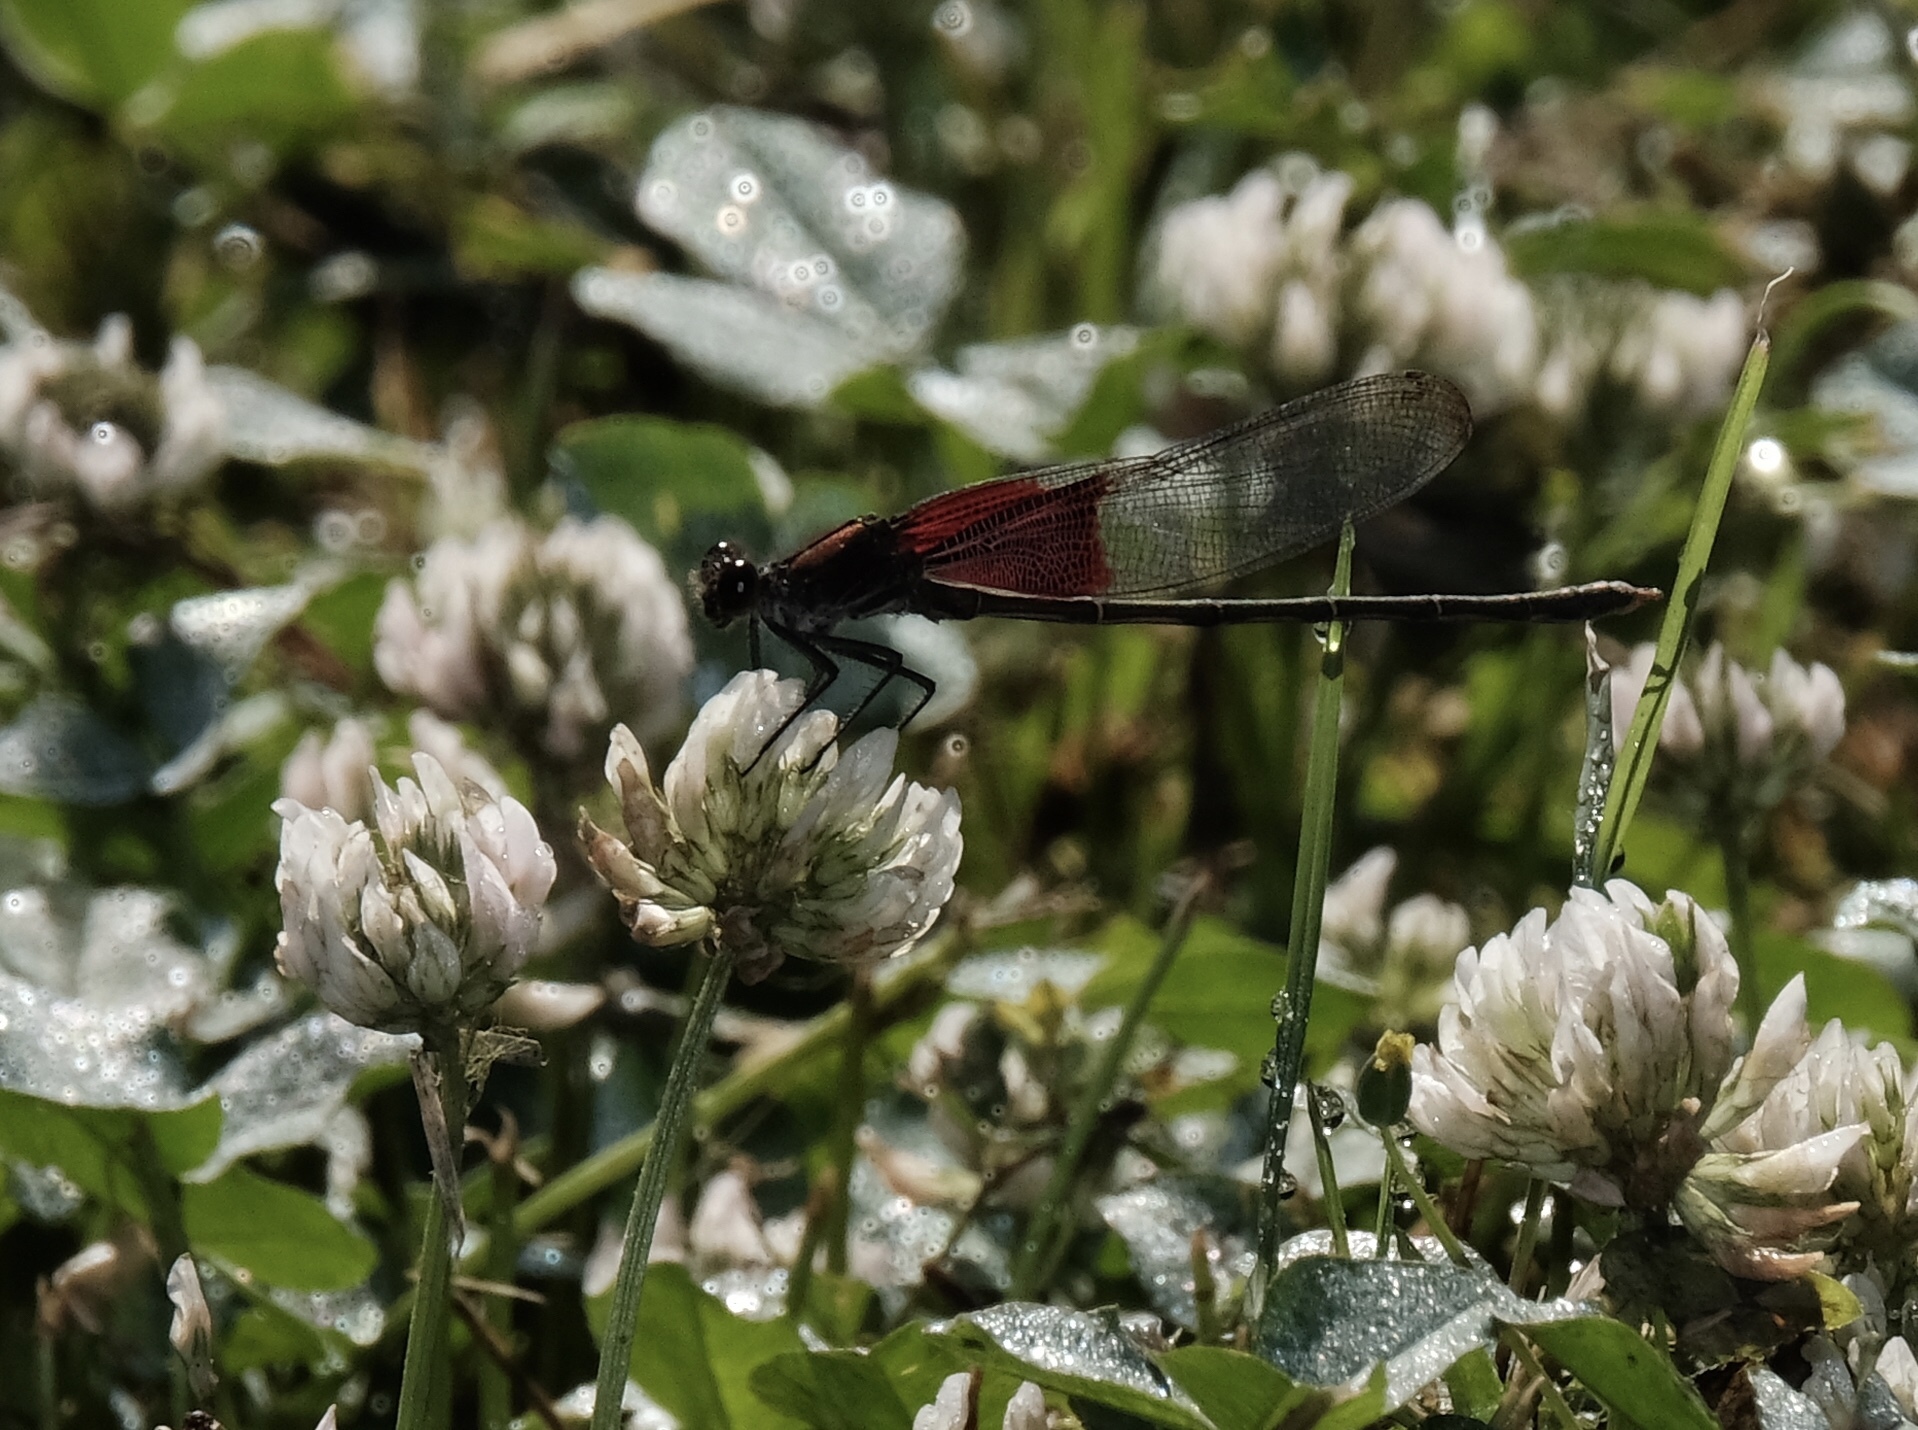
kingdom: Animalia
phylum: Arthropoda
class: Insecta
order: Odonata
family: Calopterygidae
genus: Hetaerina
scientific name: Hetaerina americana
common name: American rubyspot
